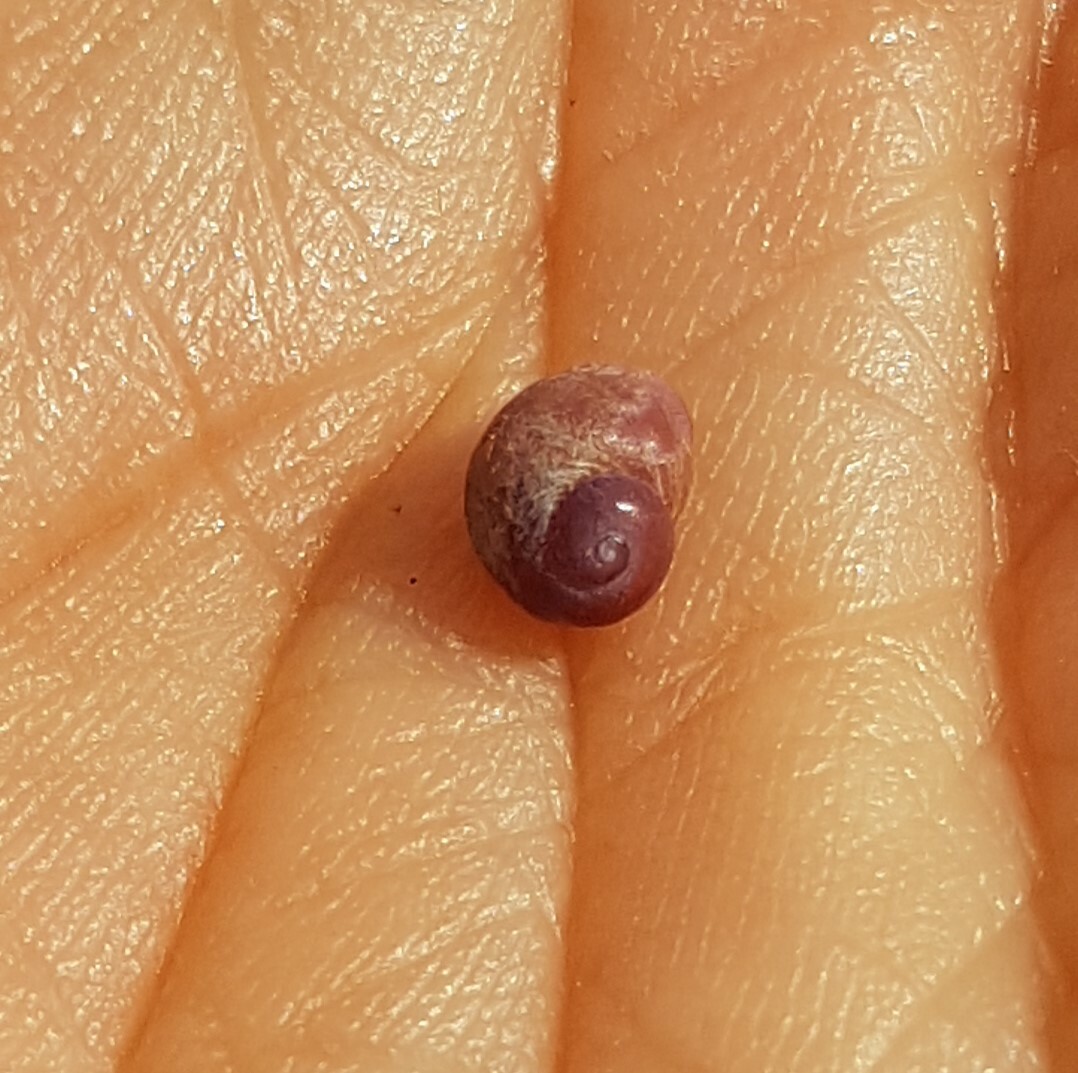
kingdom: Animalia
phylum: Mollusca
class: Gastropoda
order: Littorinimorpha
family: Littorinidae
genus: Lacuna
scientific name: Lacuna parva
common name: Least chink shell
